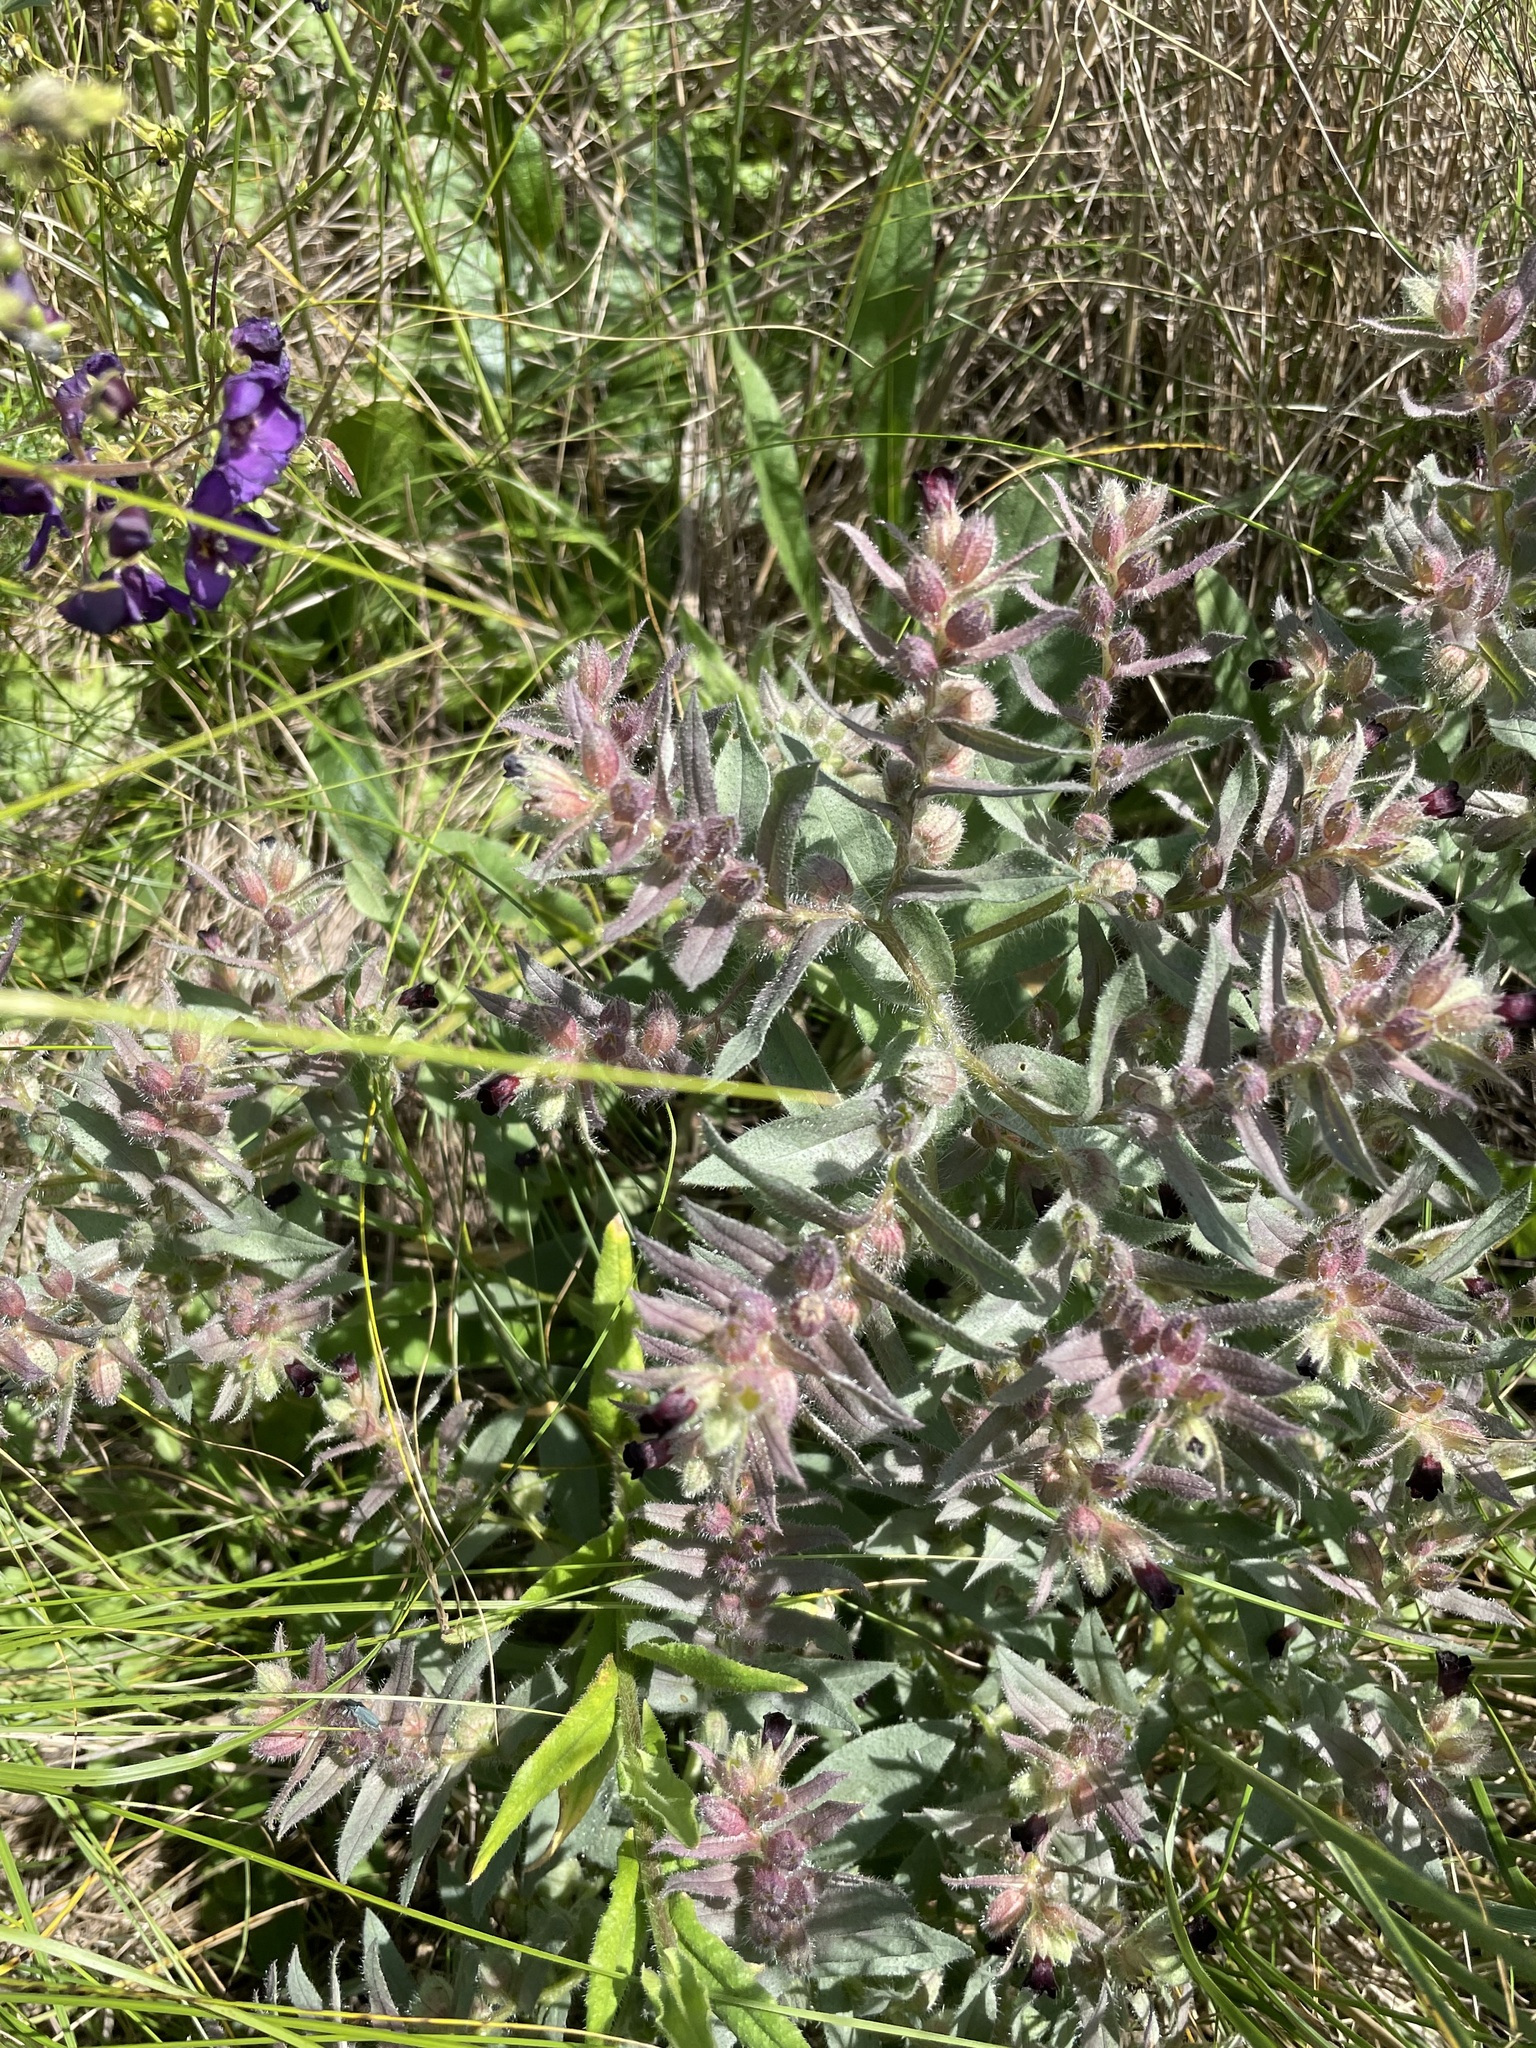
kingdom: Plantae
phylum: Tracheophyta
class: Magnoliopsida
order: Boraginales
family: Boraginaceae
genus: Nonea
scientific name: Nonea pulla
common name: Brown nonea
